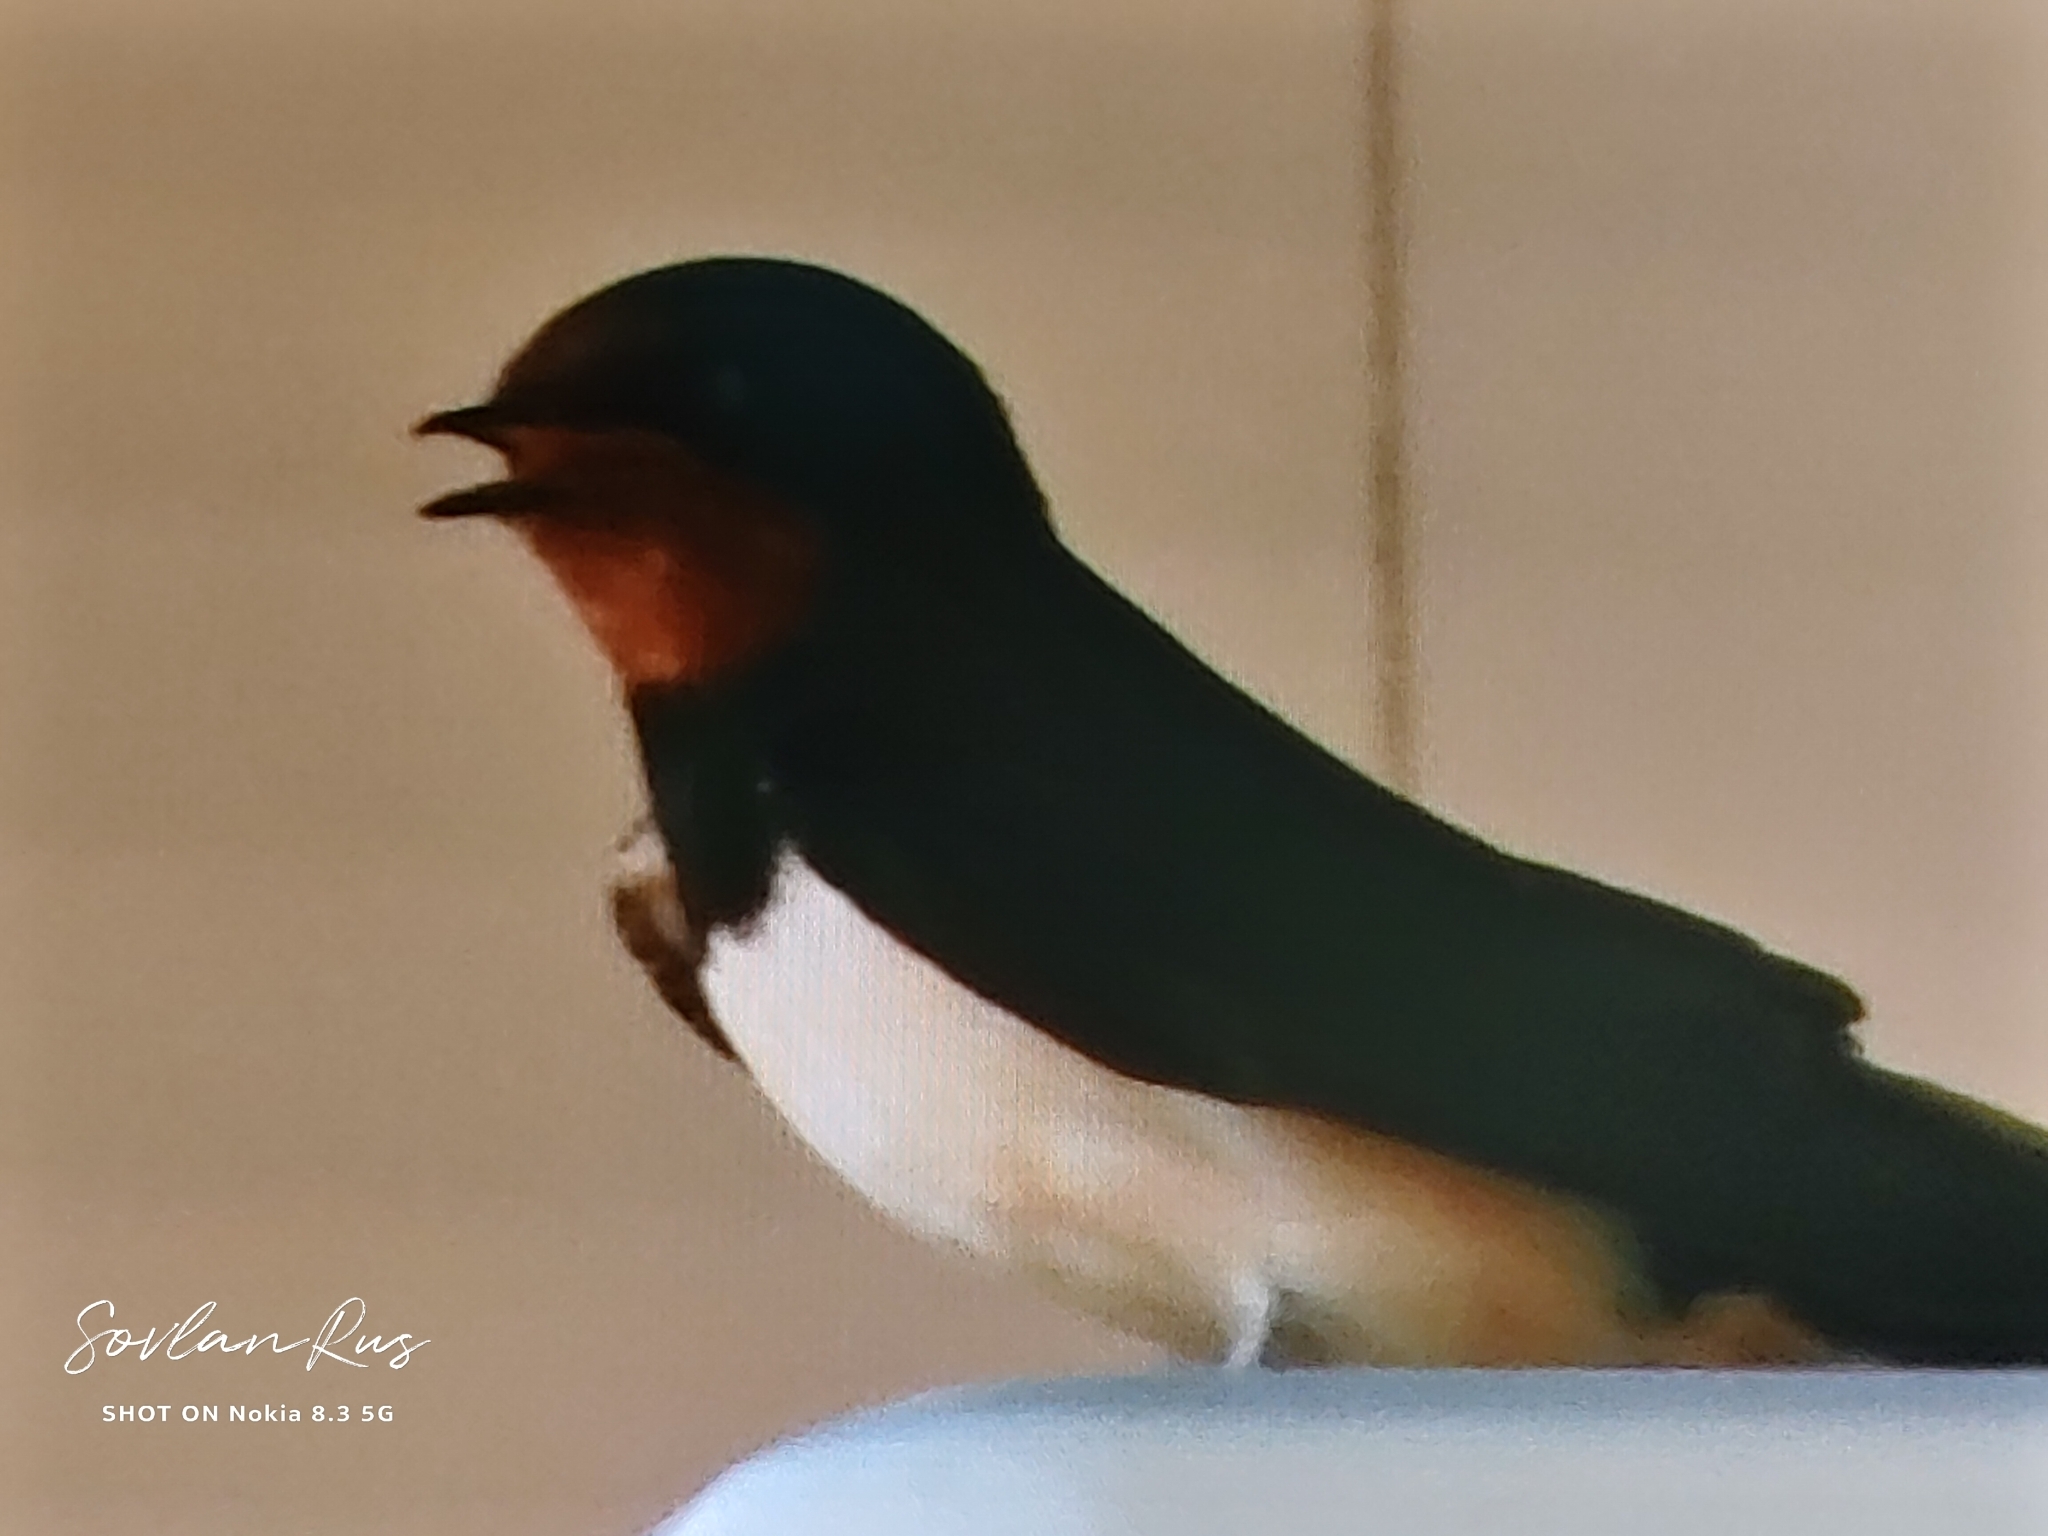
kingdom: Animalia
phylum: Chordata
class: Aves
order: Passeriformes
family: Hirundinidae
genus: Hirundo
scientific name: Hirundo rustica
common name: Barn swallow
